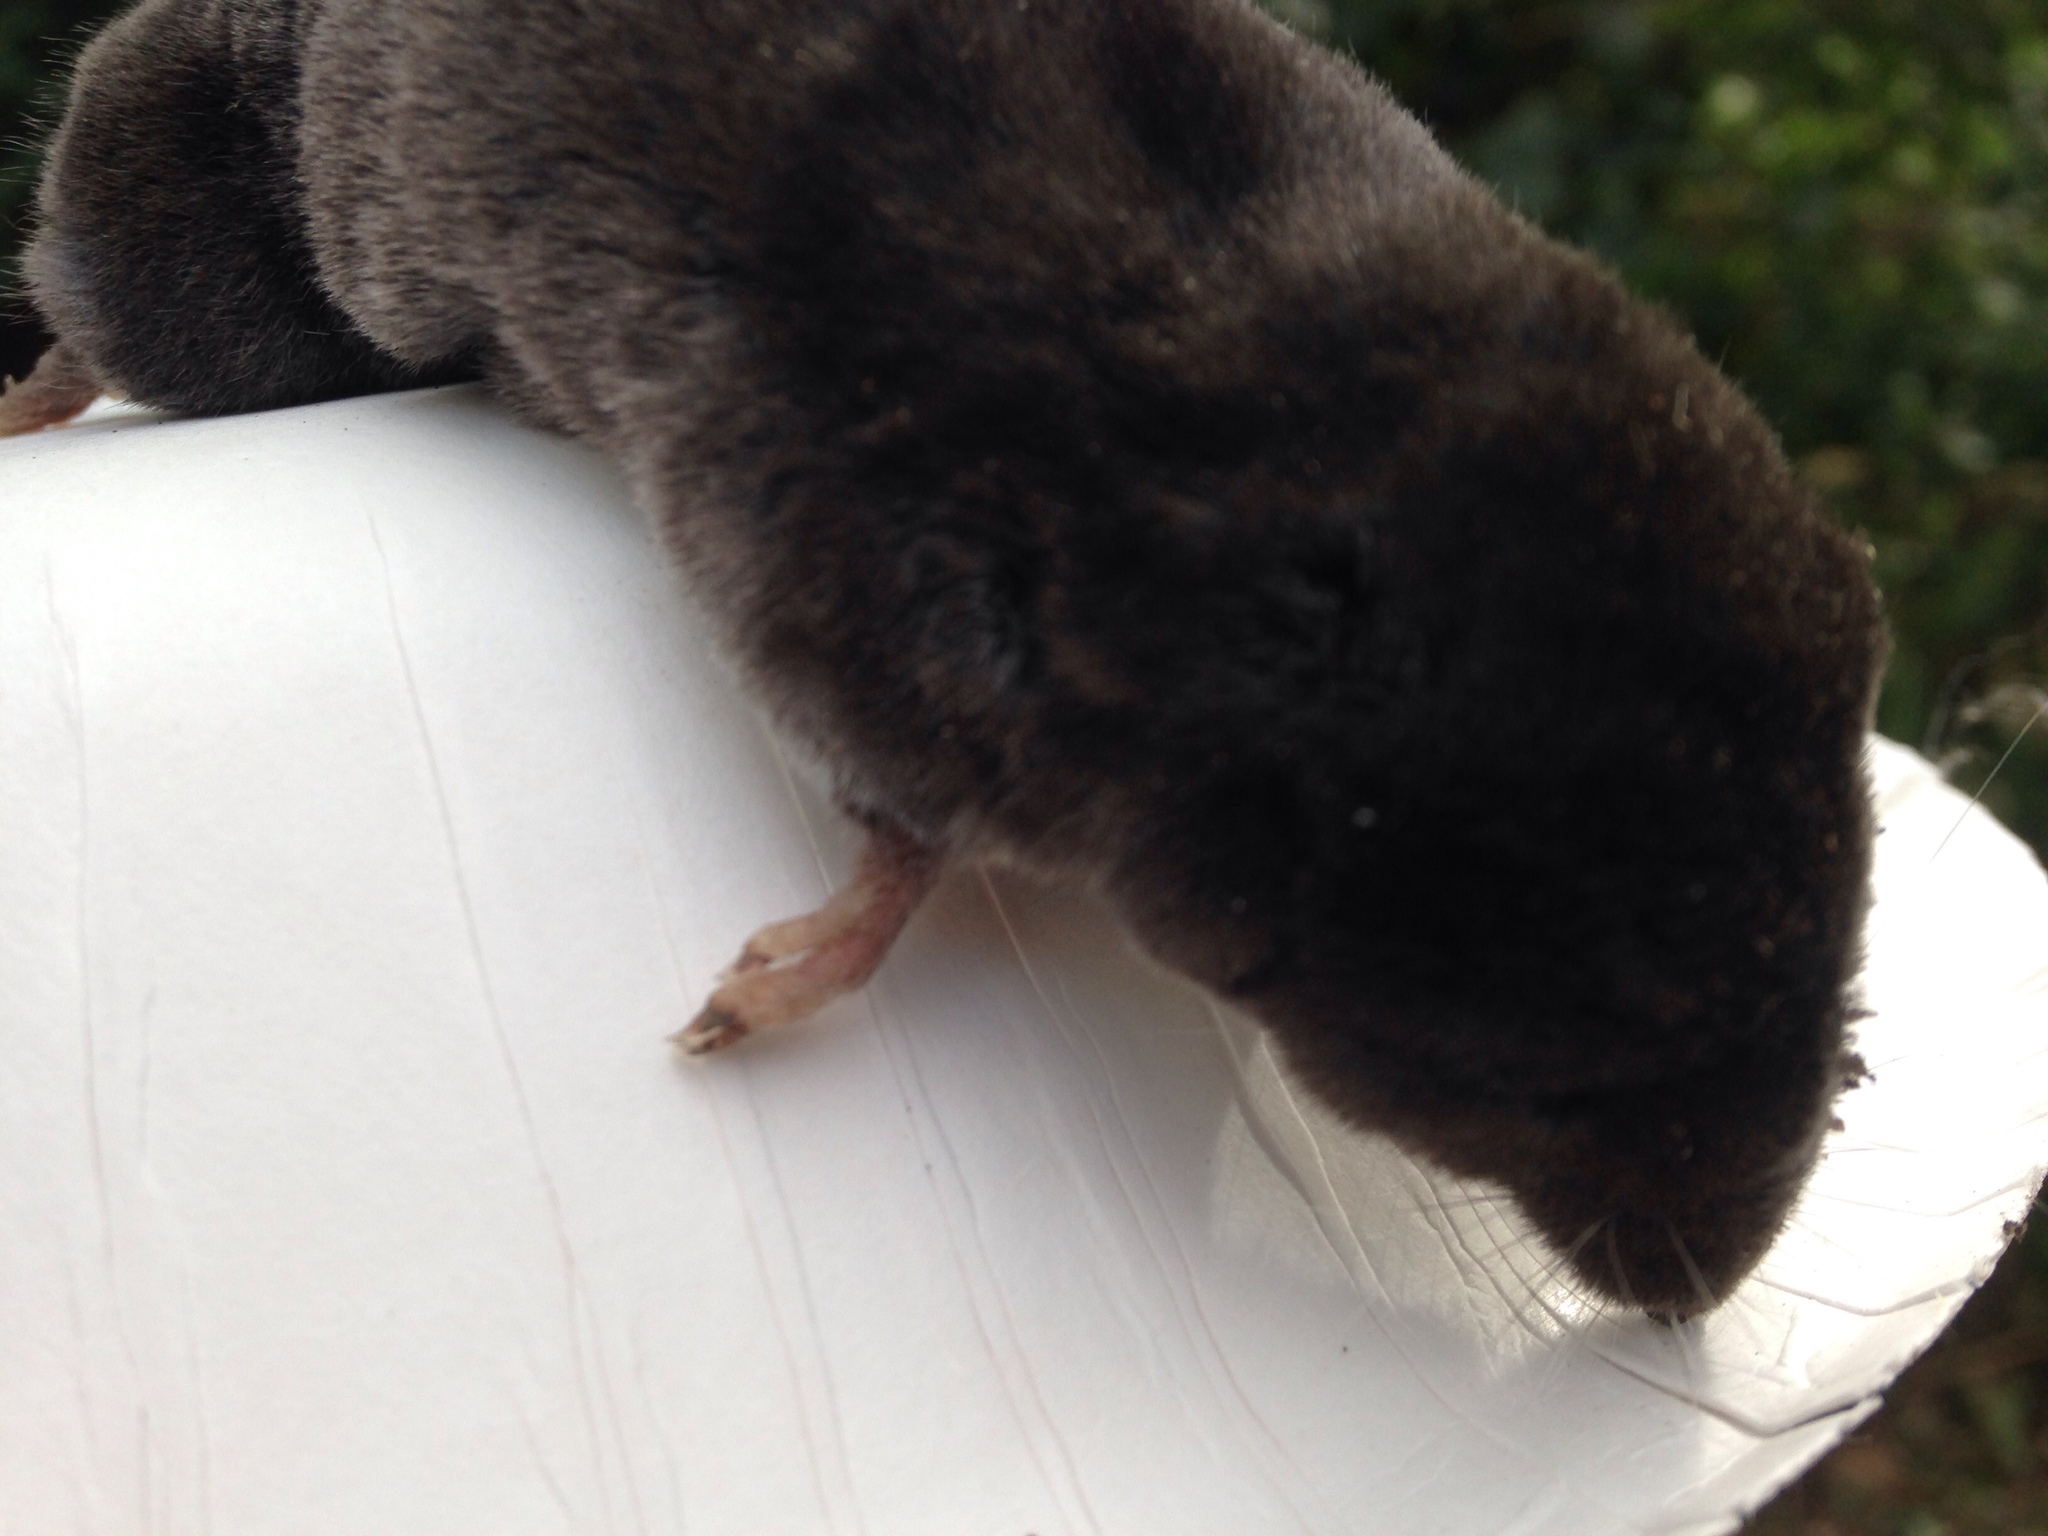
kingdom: Animalia
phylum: Chordata
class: Mammalia
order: Soricomorpha
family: Soricidae
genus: Blarina
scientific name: Blarina brevicauda
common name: Northern short-tailed shrew
